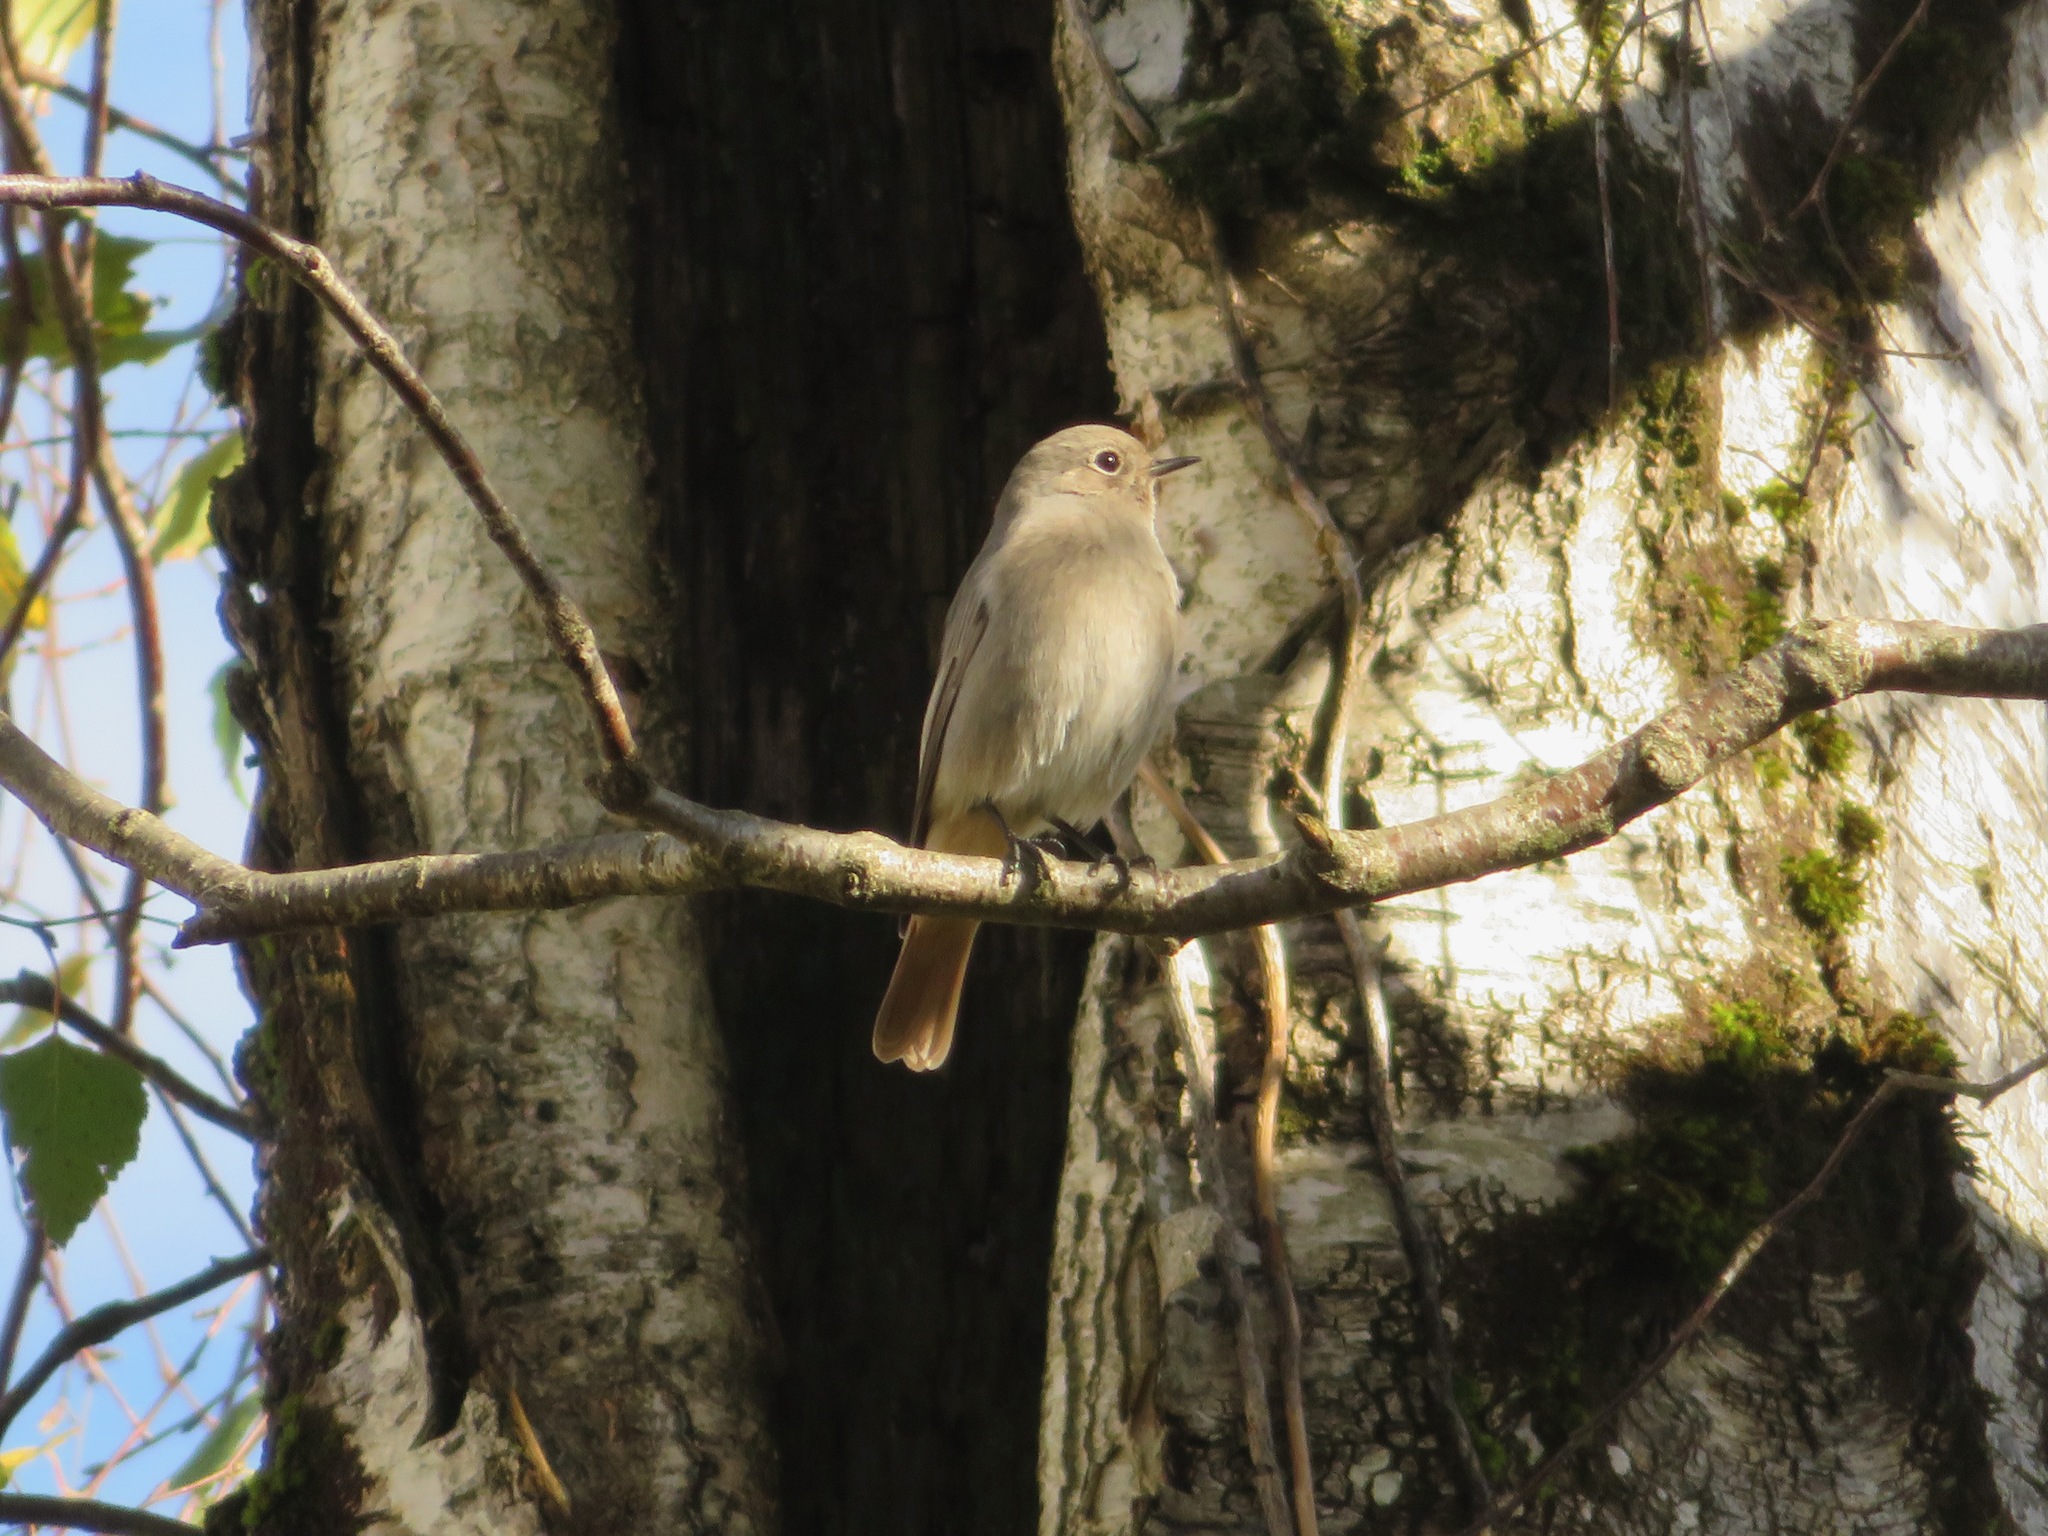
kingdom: Animalia
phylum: Chordata
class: Aves
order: Passeriformes
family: Muscicapidae
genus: Phoenicurus
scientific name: Phoenicurus phoenicurus
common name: Common redstart
